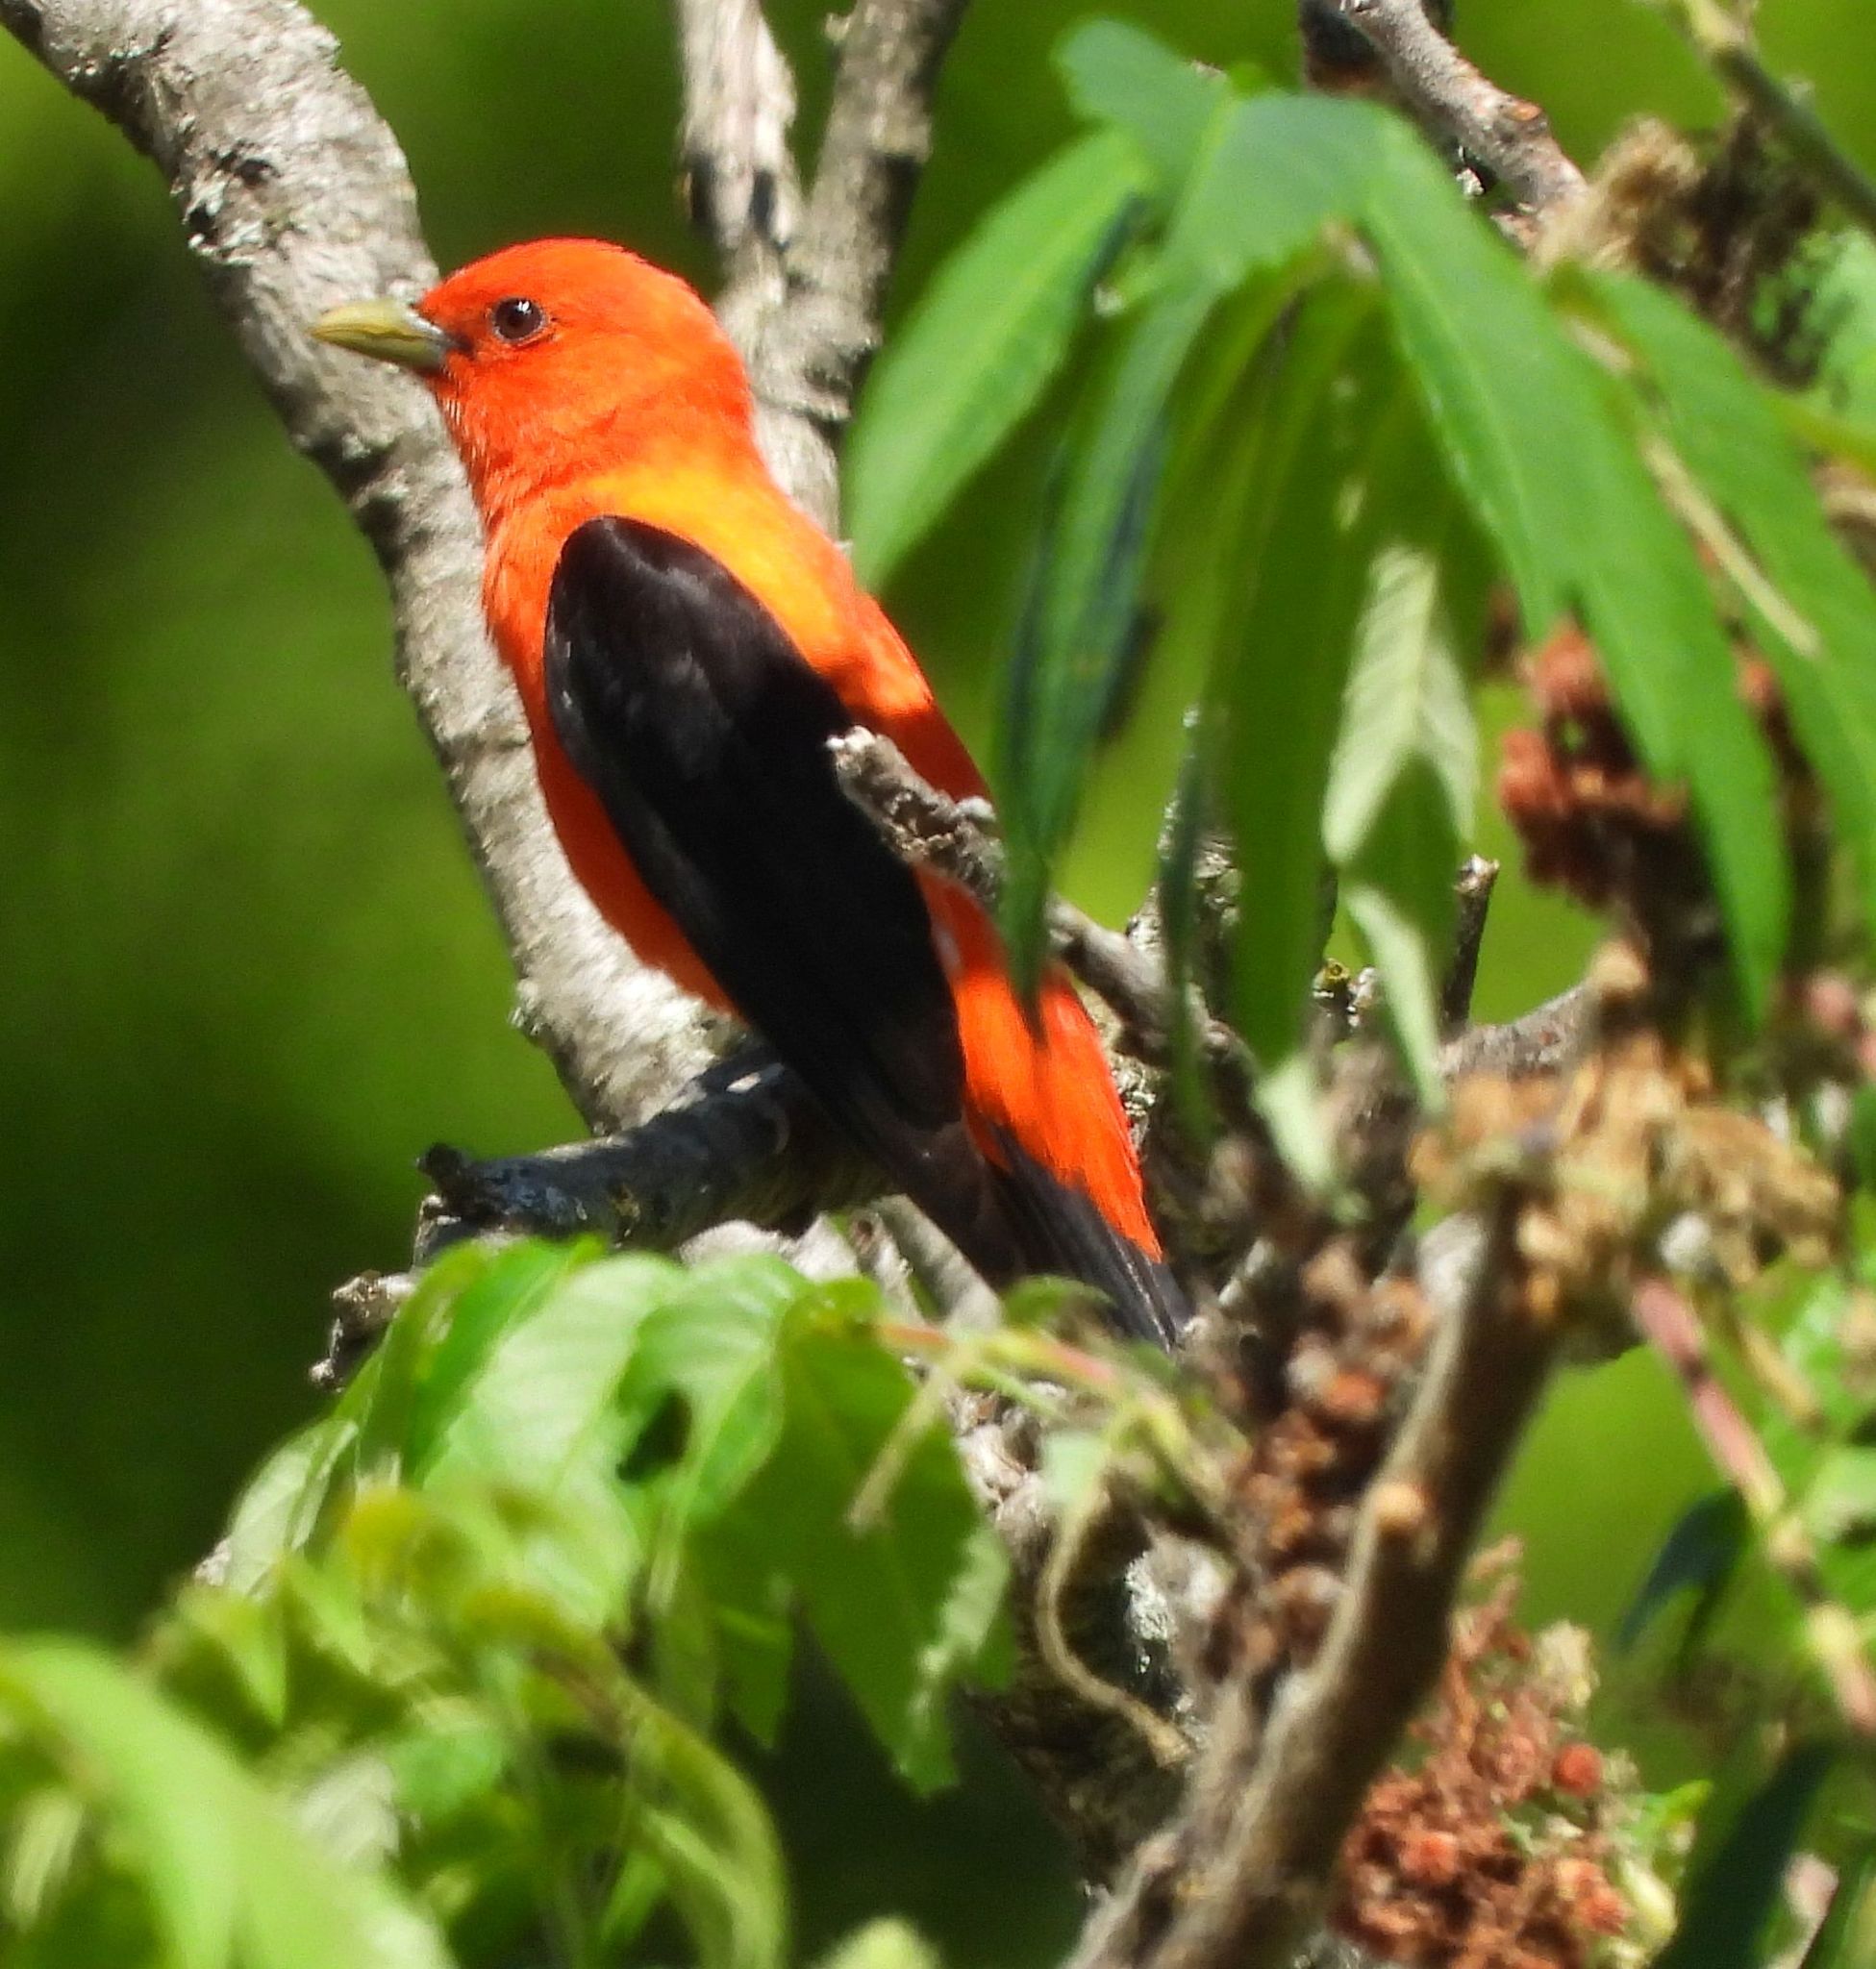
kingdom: Animalia
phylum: Chordata
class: Aves
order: Passeriformes
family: Cardinalidae
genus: Piranga
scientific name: Piranga olivacea
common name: Scarlet tanager
